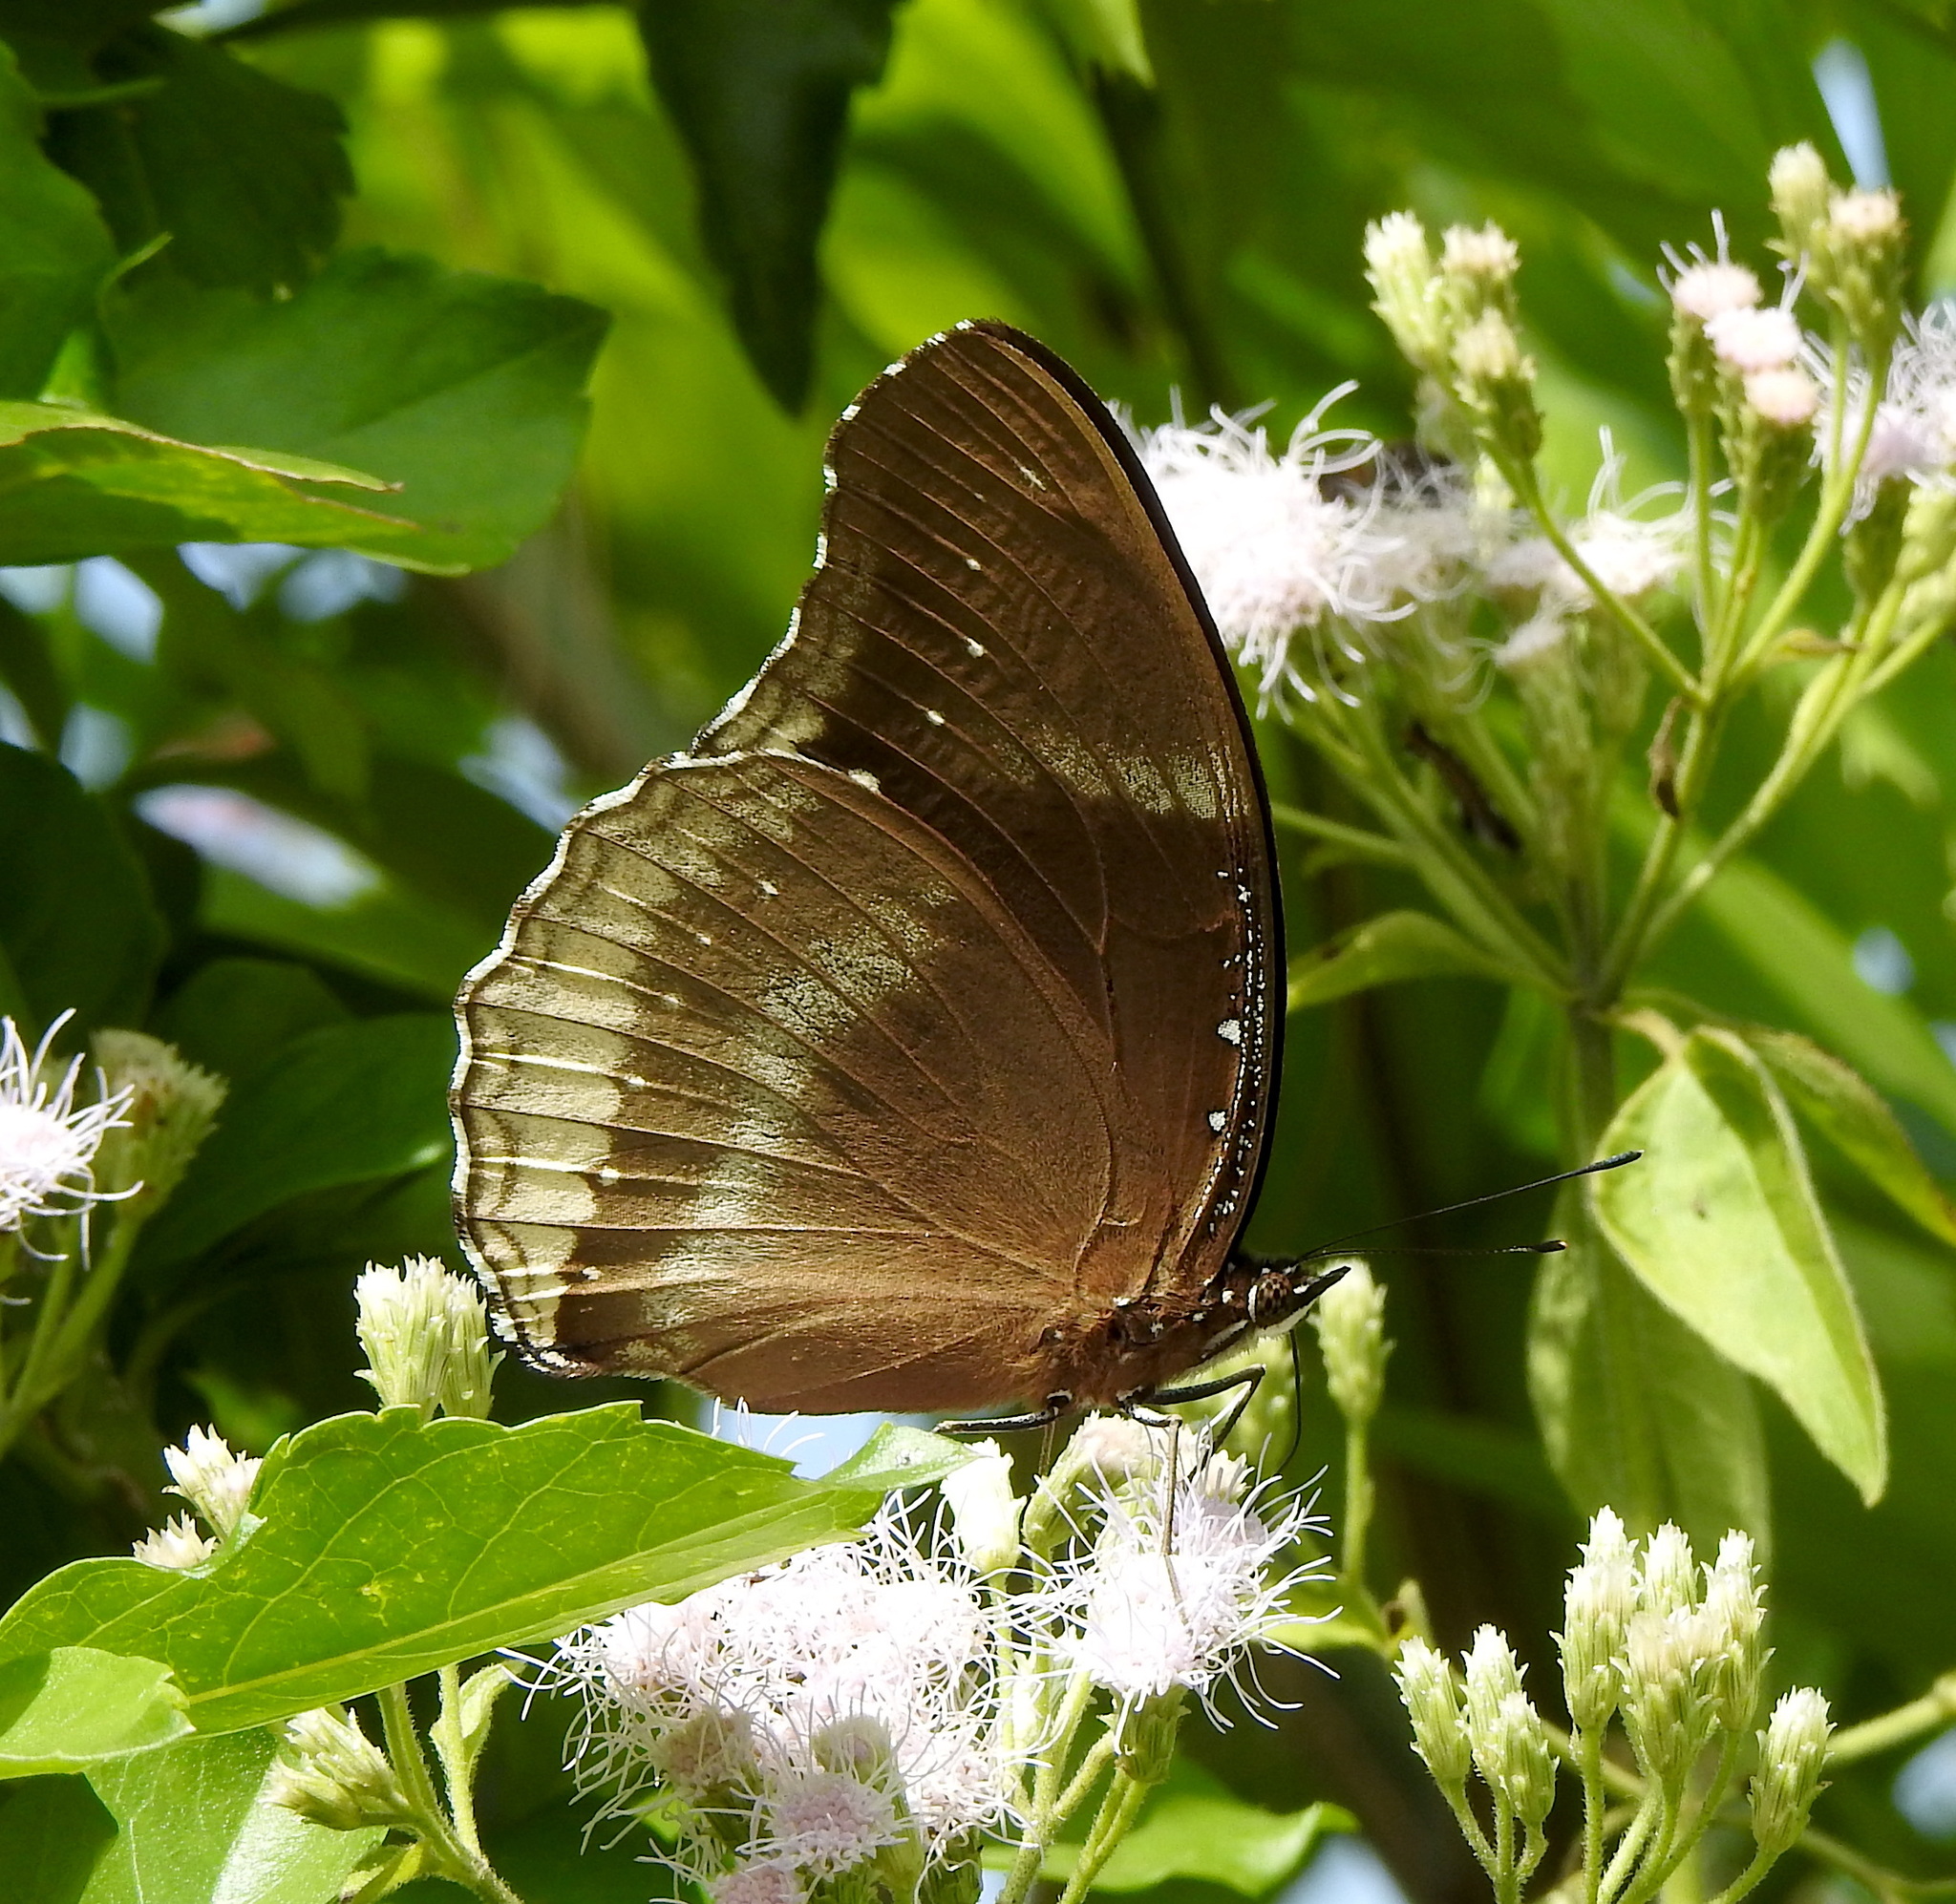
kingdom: Animalia
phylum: Arthropoda
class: Insecta
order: Lepidoptera
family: Nymphalidae
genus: Hypolimnas
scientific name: Hypolimnas bolina
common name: Great eggfly
